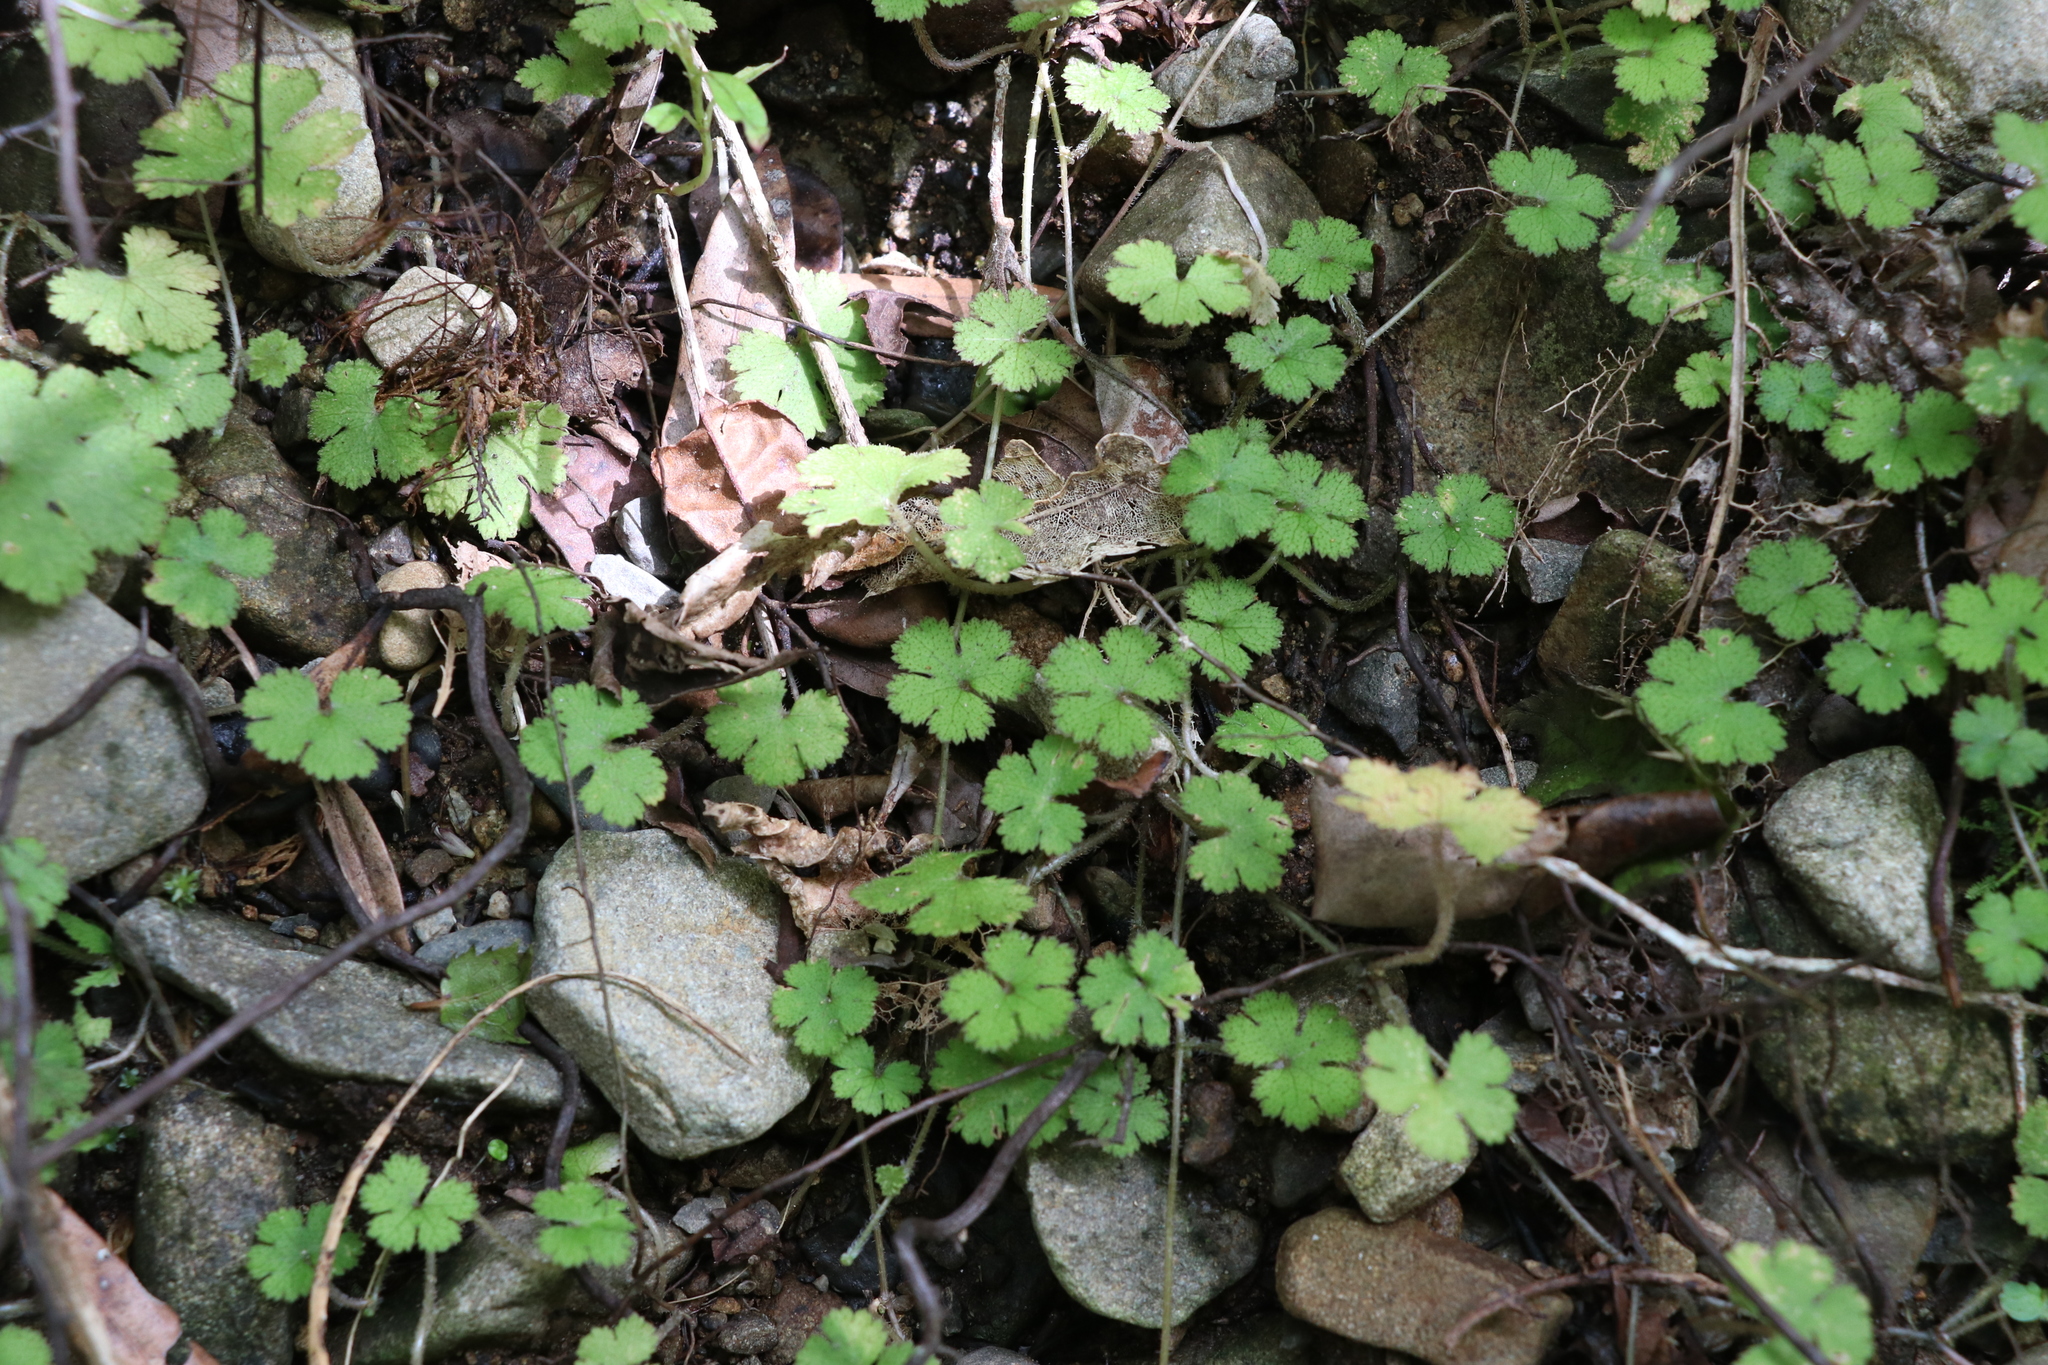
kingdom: Plantae
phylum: Tracheophyta
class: Magnoliopsida
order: Apiales
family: Araliaceae
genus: Hydrocotyle
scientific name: Hydrocotyle elongata
